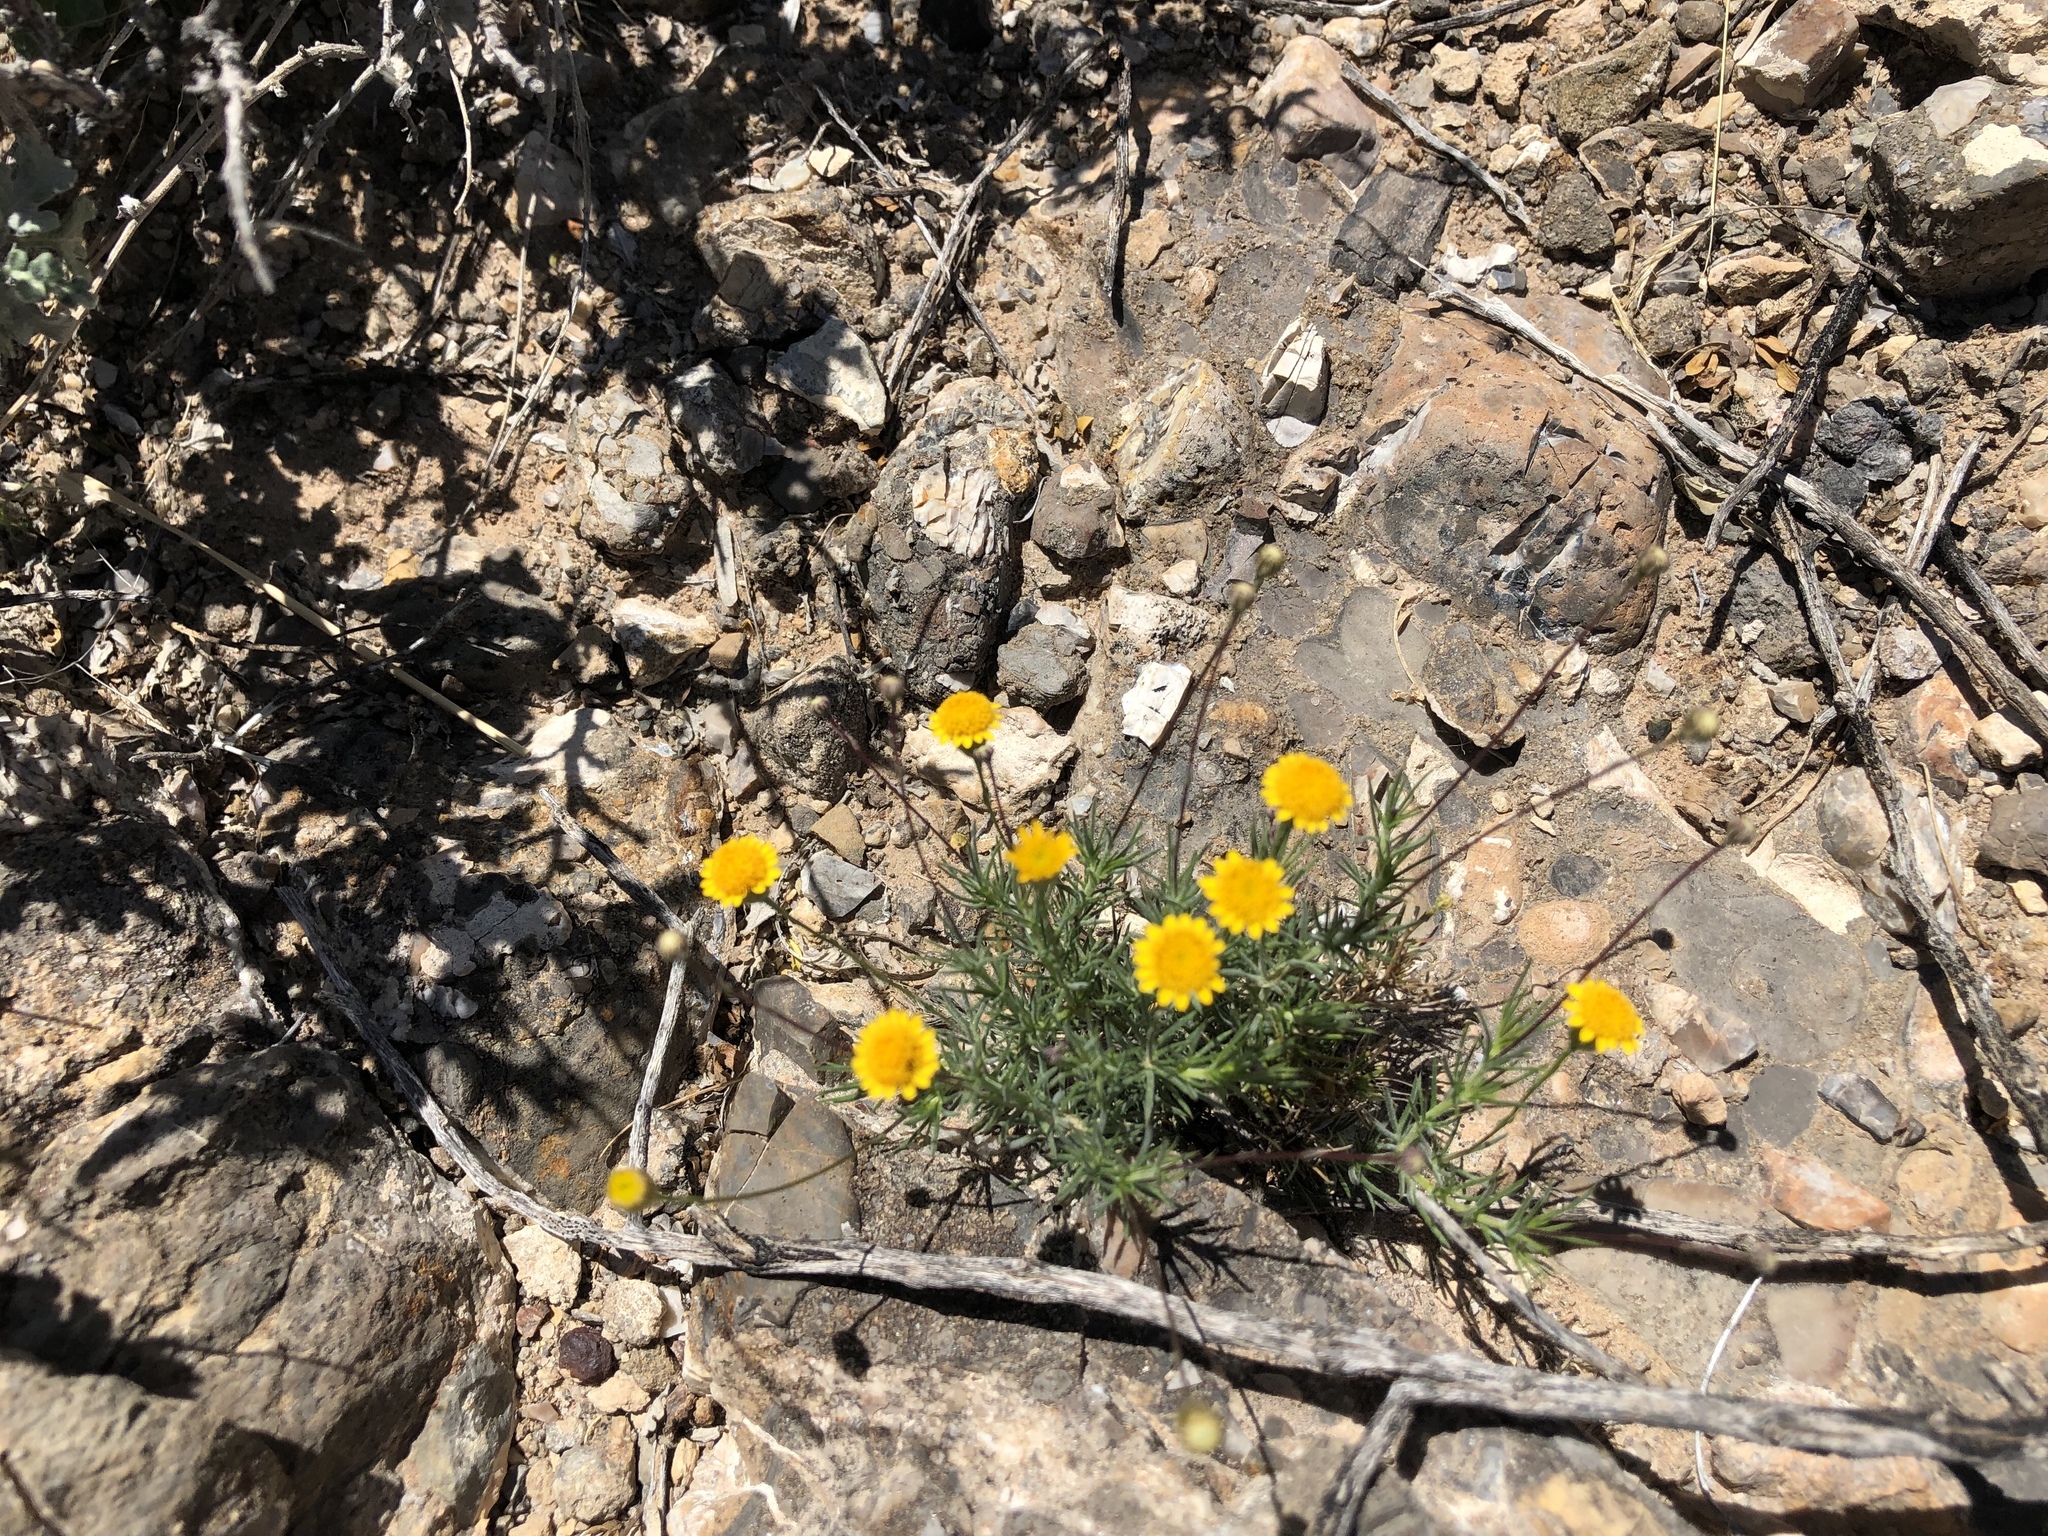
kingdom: Plantae
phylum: Tracheophyta
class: Magnoliopsida
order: Asterales
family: Asteraceae
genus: Thymophylla
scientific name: Thymophylla pentachaeta
